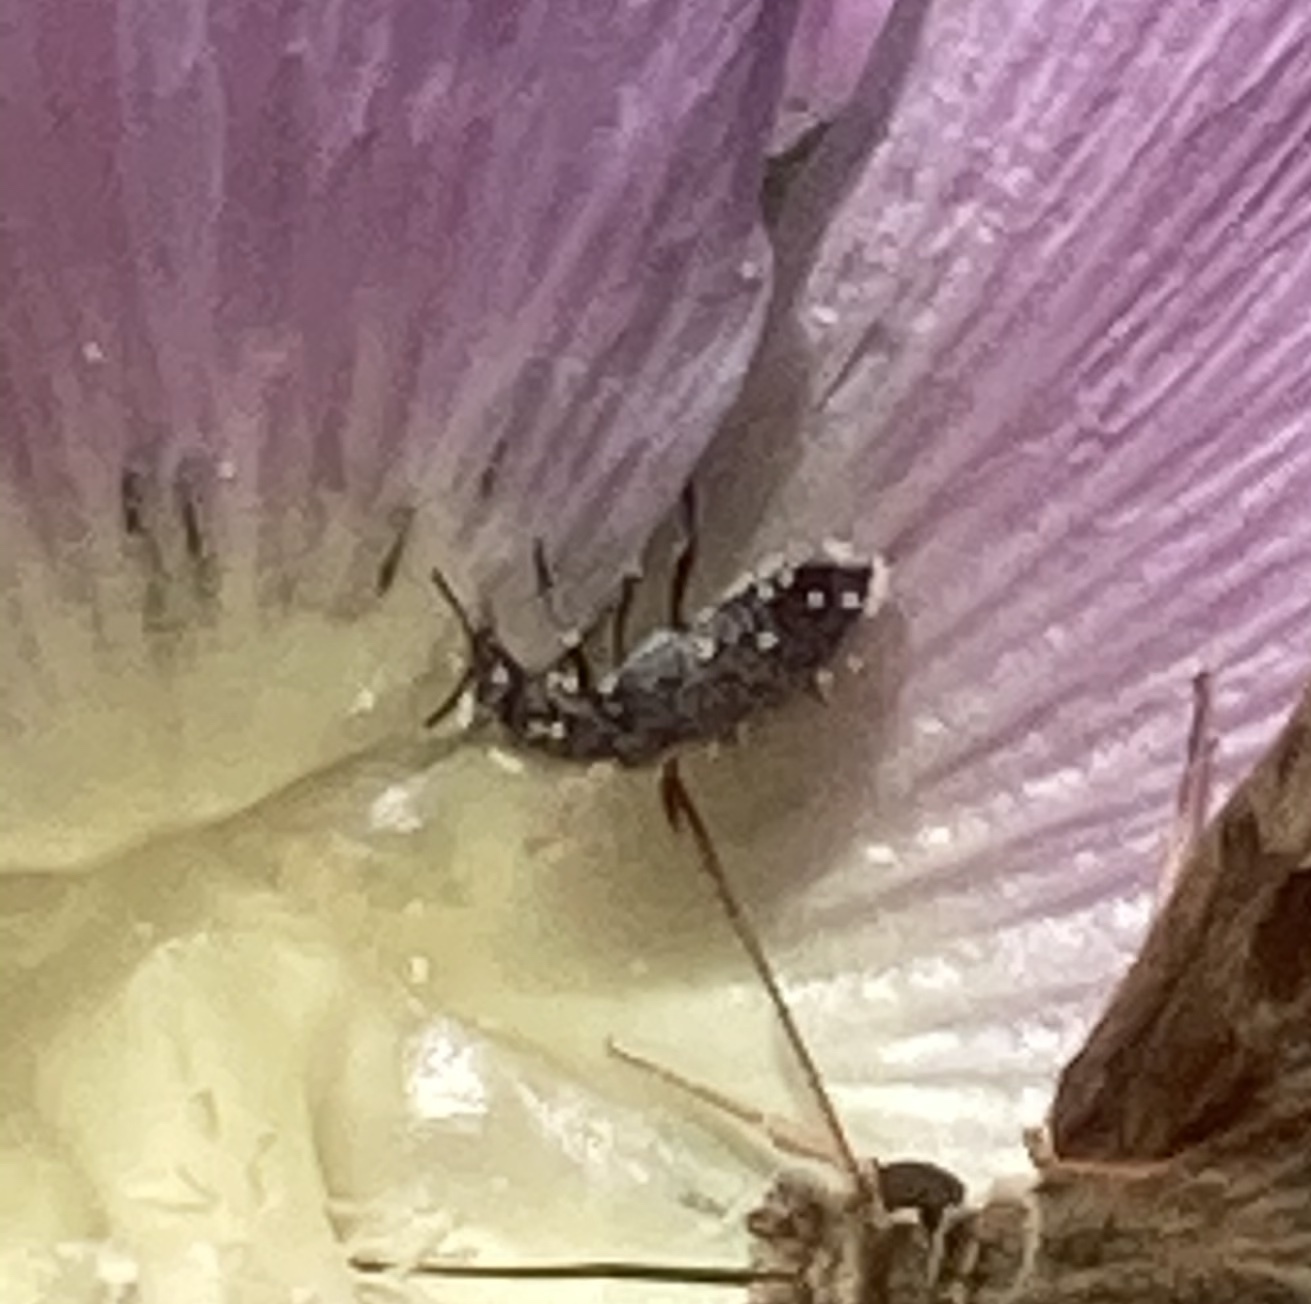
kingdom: Animalia
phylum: Arthropoda
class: Insecta
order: Lepidoptera
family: Hesperiidae
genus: Carcharodus
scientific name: Carcharodus alceae
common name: Mallow skipper
